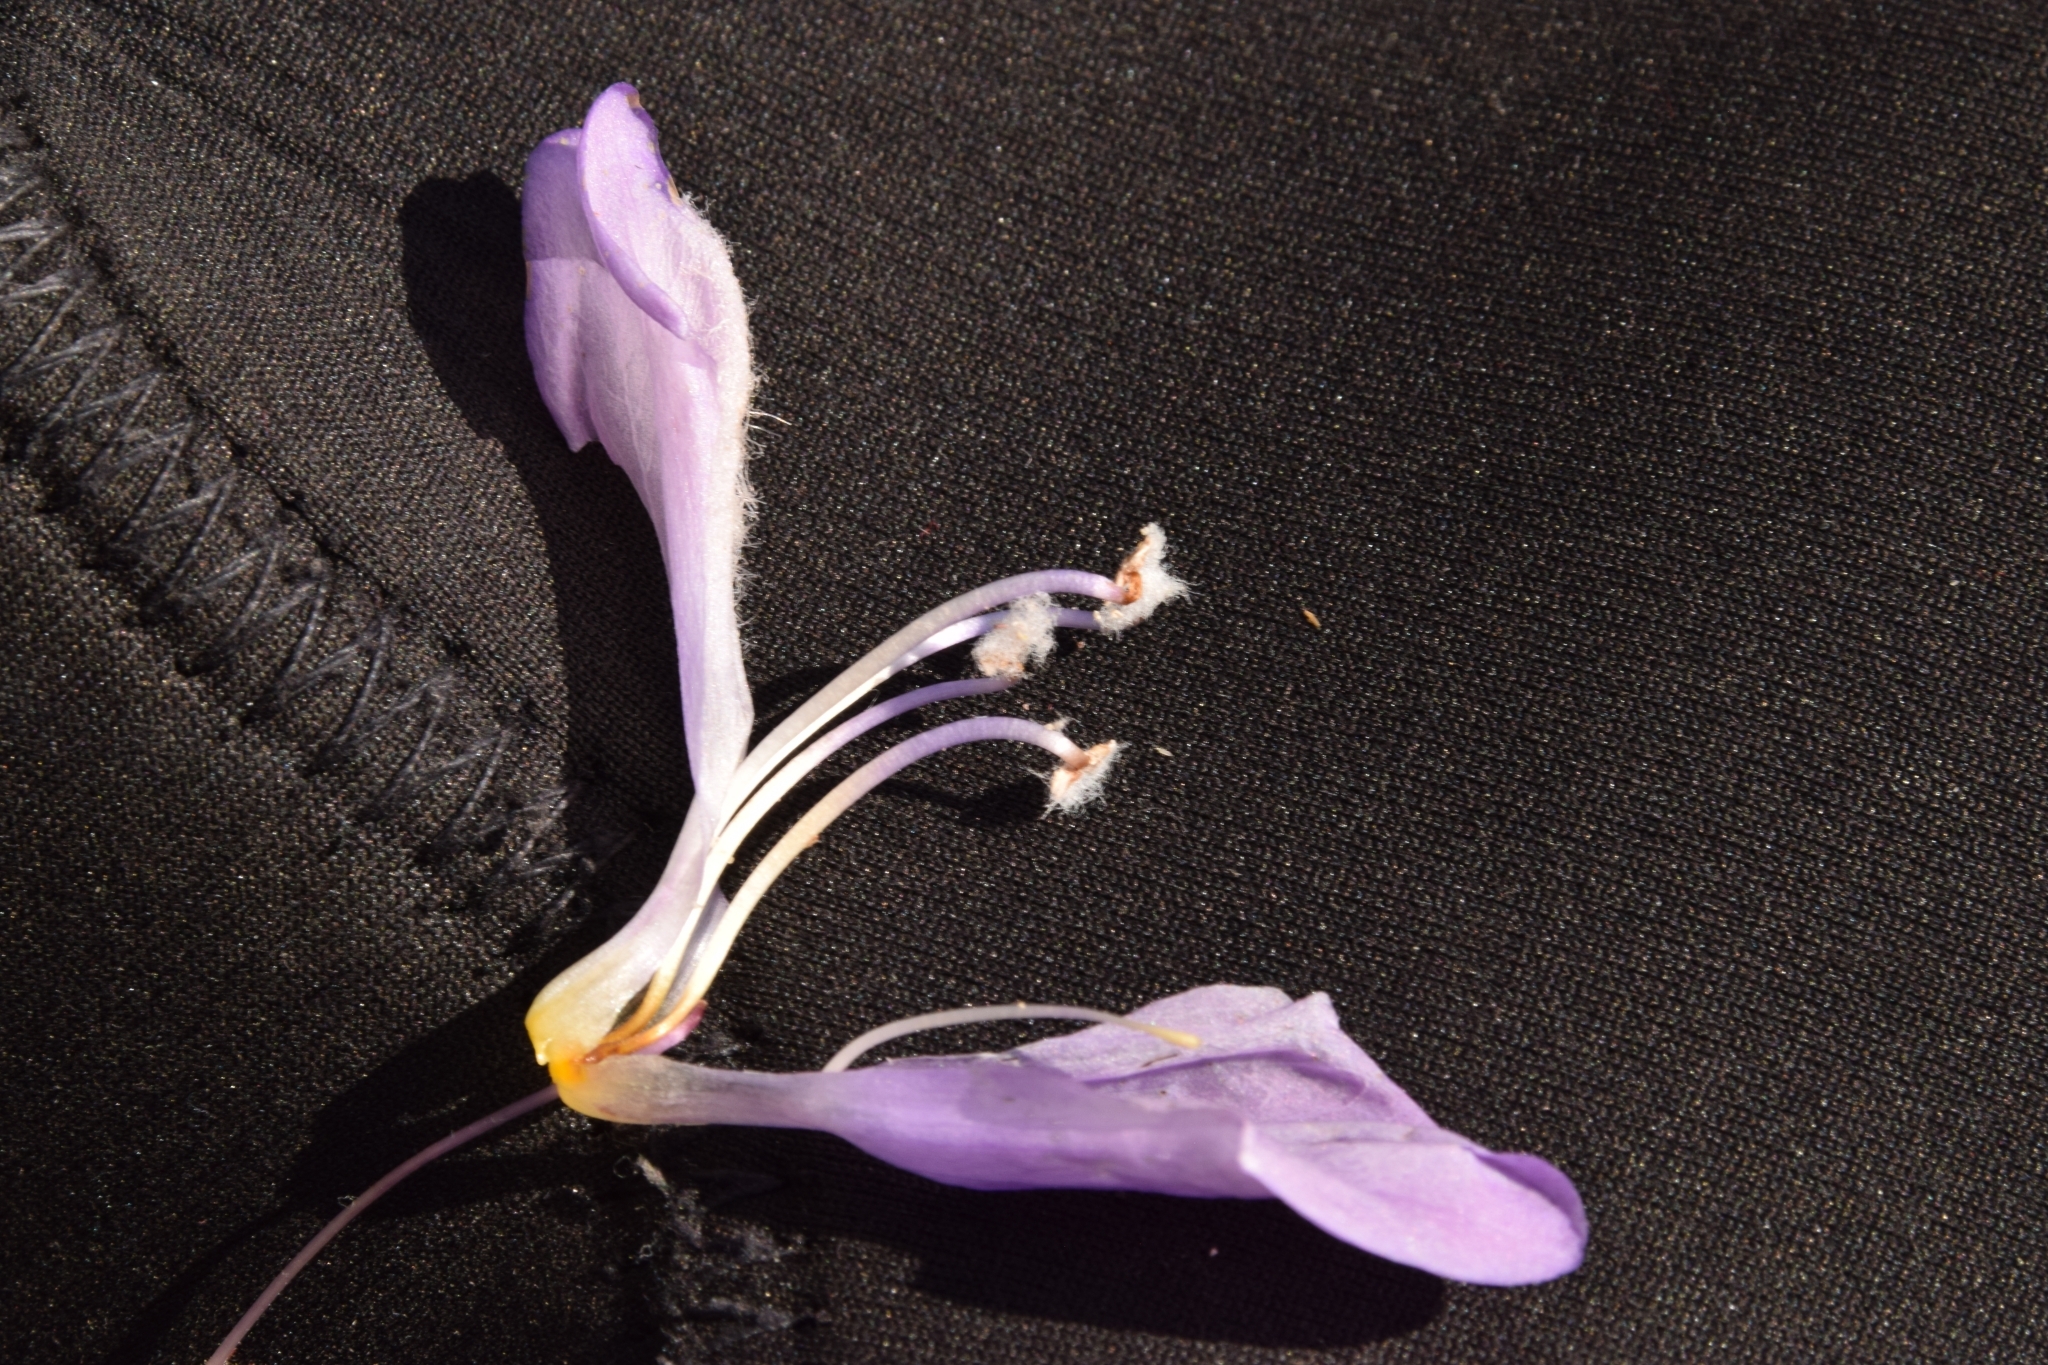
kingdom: Plantae
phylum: Tracheophyta
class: Magnoliopsida
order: Lamiales
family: Plantaginaceae
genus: Penstemon
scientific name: Penstemon lyalli
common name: Lyall's beardtongue
